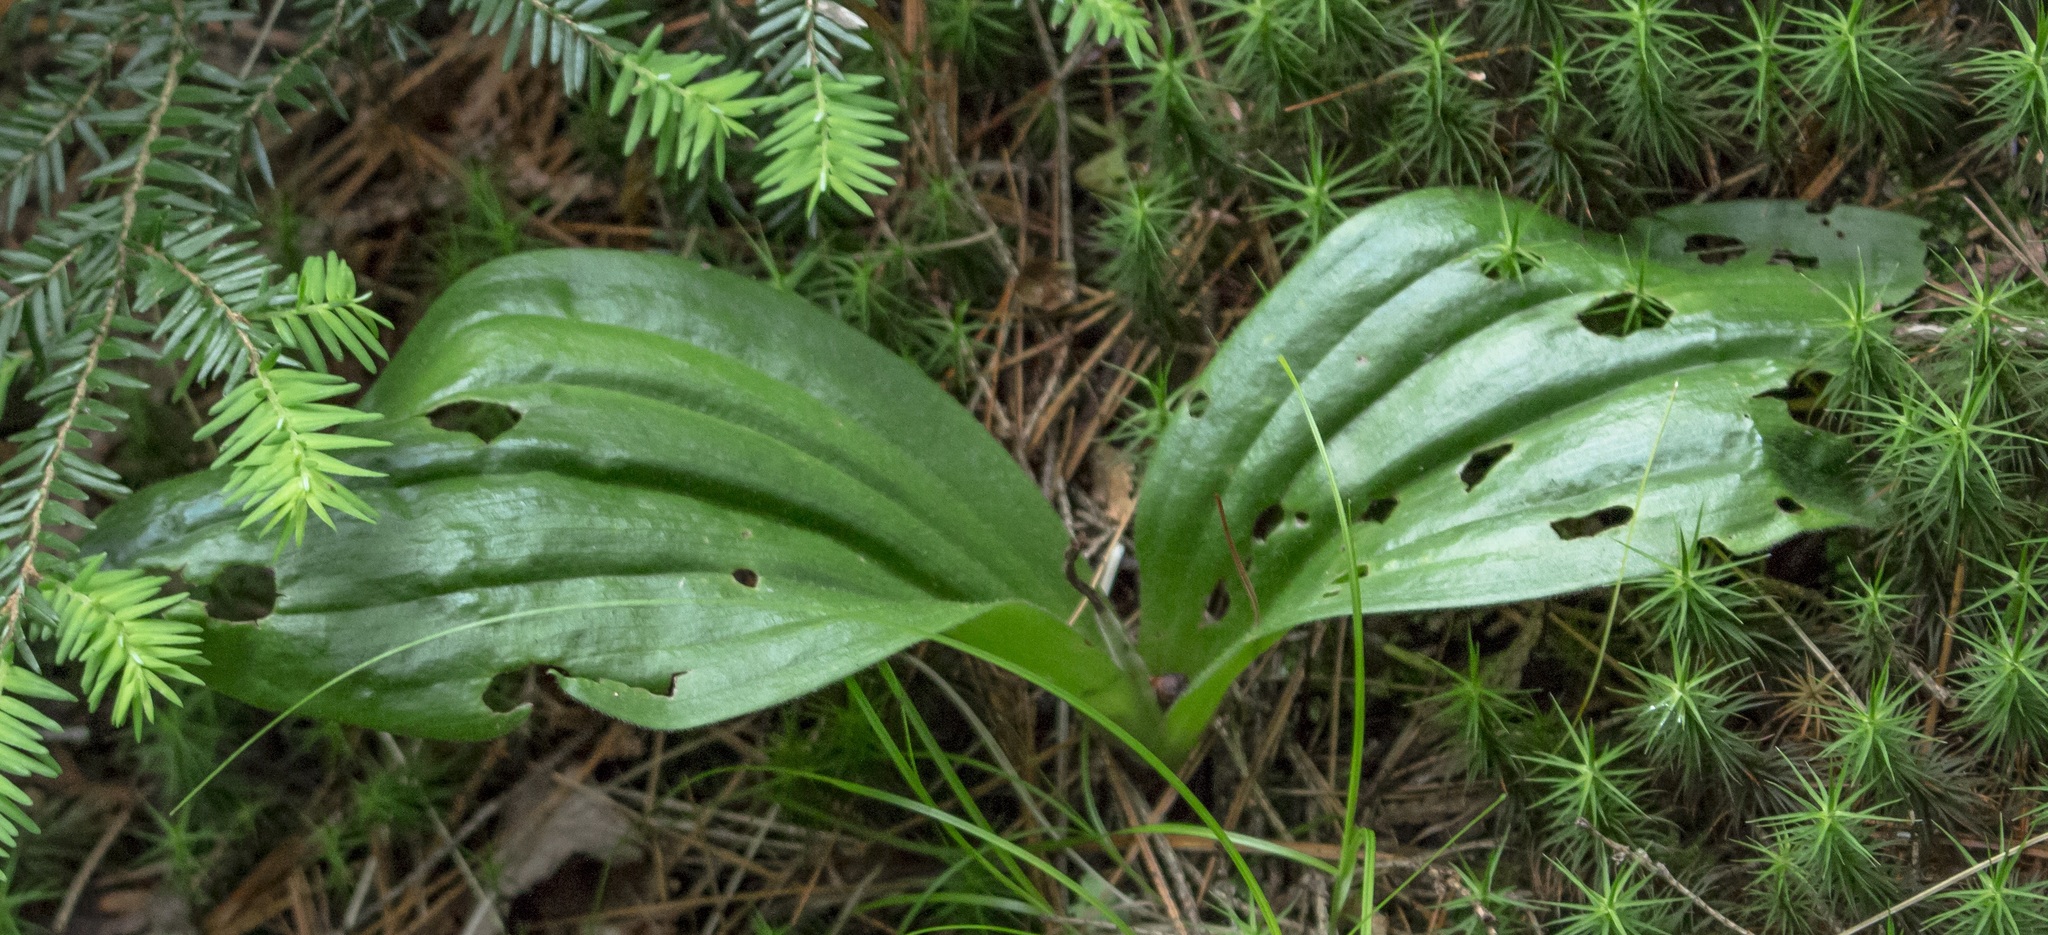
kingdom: Plantae
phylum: Tracheophyta
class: Liliopsida
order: Asparagales
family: Orchidaceae
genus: Cypripedium
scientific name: Cypripedium acaule
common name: Pink lady's-slipper
